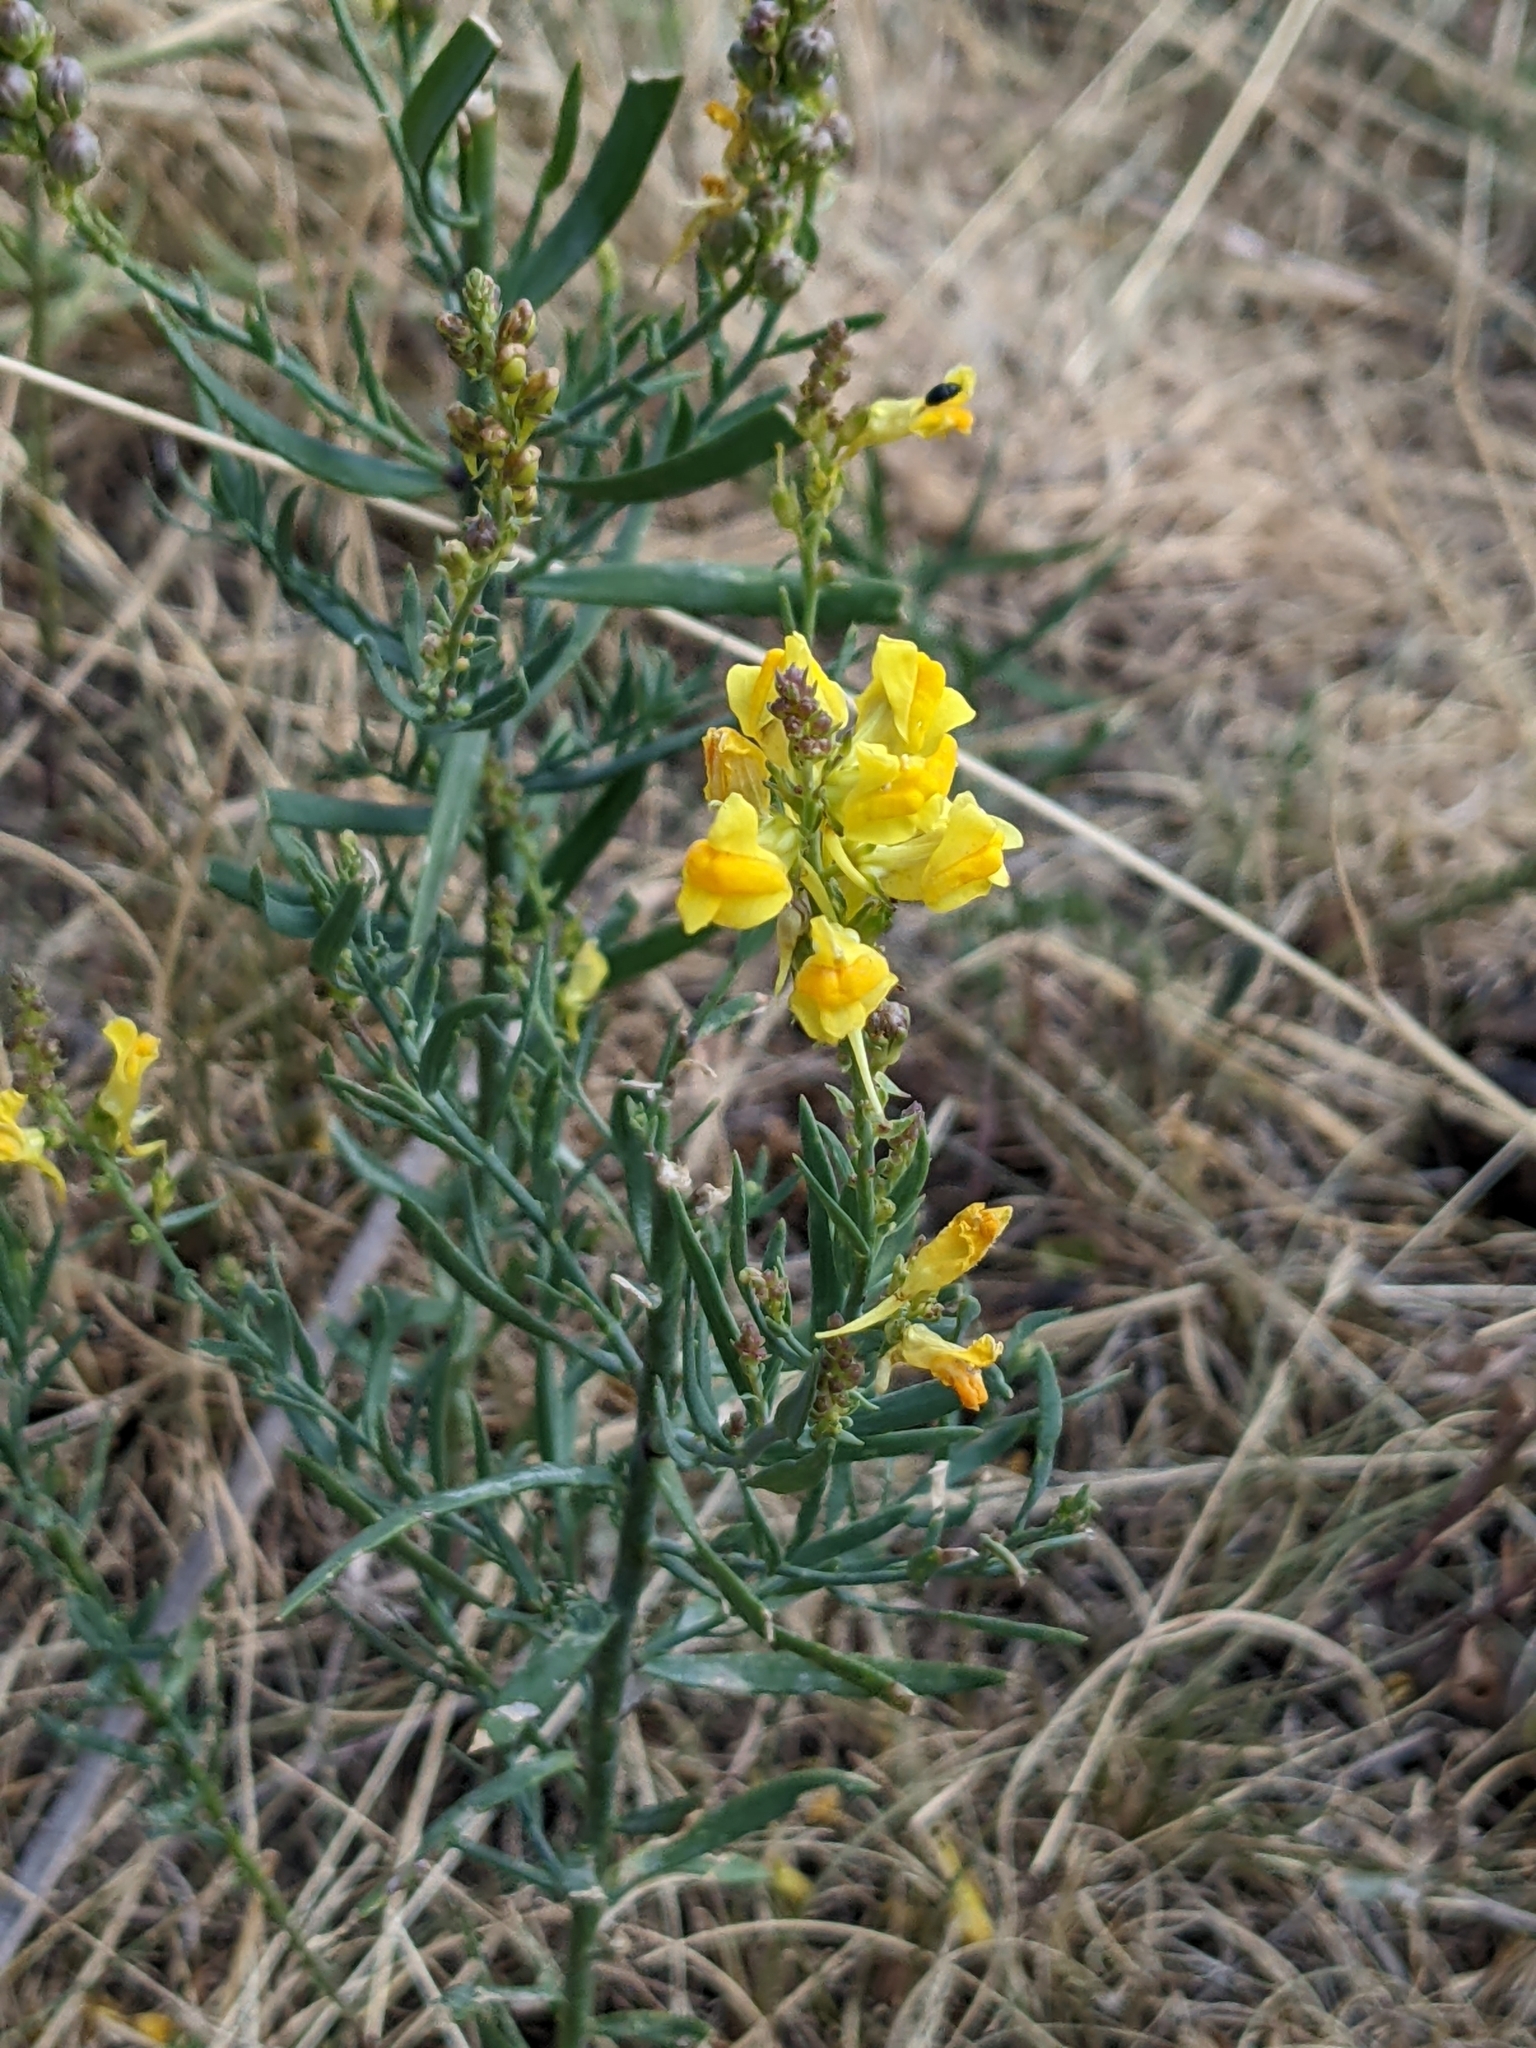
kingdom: Plantae
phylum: Tracheophyta
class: Magnoliopsida
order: Lamiales
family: Plantaginaceae
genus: Linaria
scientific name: Linaria angustissima
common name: Italian toadflax
